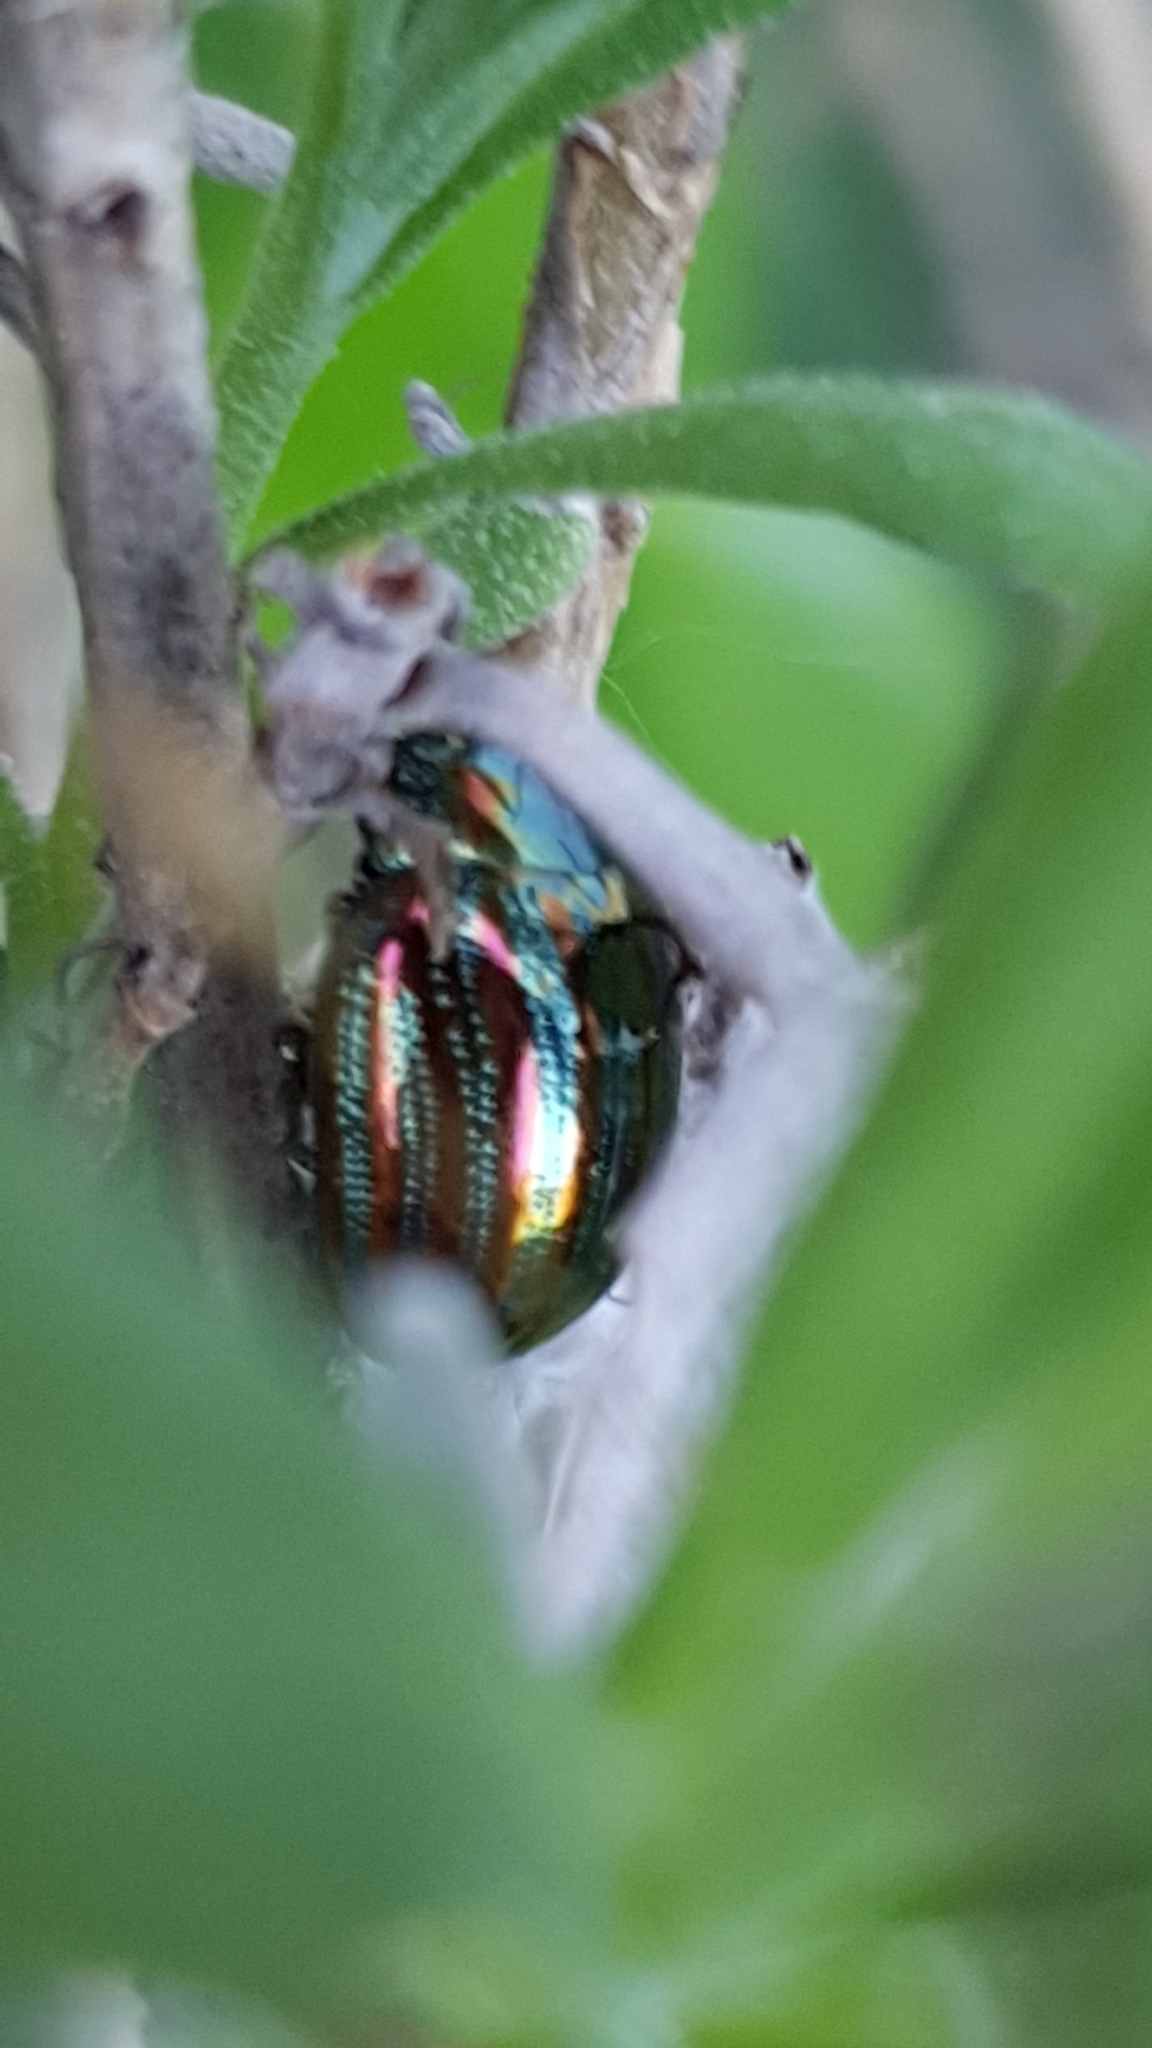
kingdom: Animalia
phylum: Arthropoda
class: Insecta
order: Coleoptera
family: Chrysomelidae
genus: Chrysolina
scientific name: Chrysolina americana
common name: Rosemary beetle
